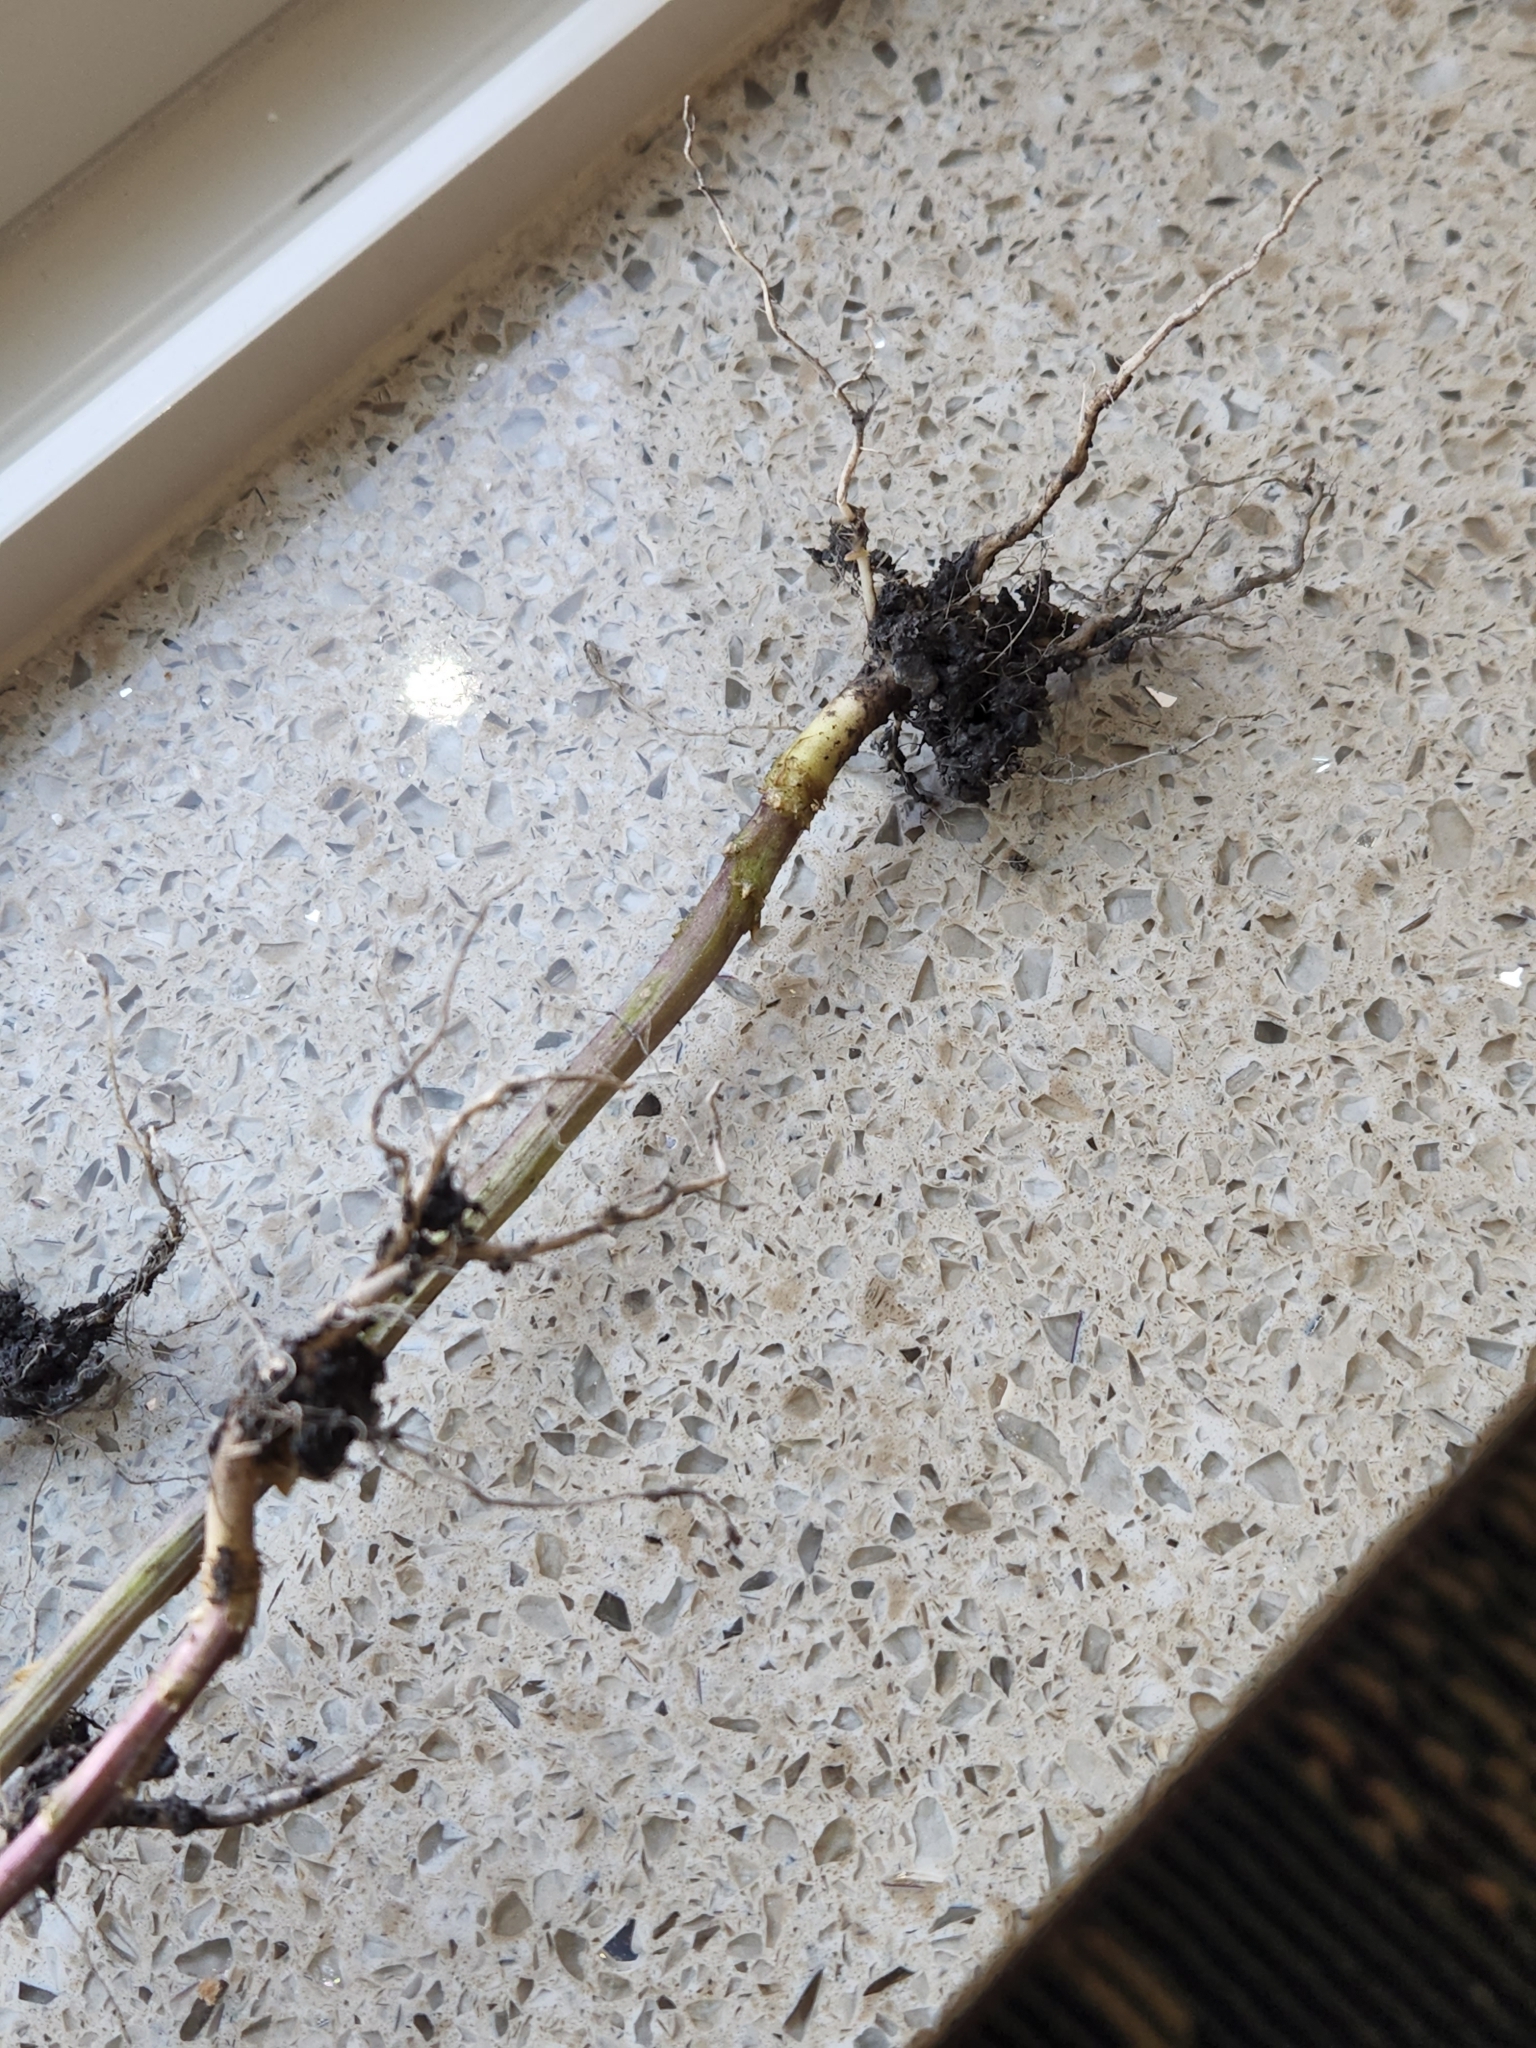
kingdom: Plantae
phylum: Tracheophyta
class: Magnoliopsida
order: Brassicales
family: Brassicaceae
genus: Thlaspi
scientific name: Thlaspi arvense
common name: Field pennycress
